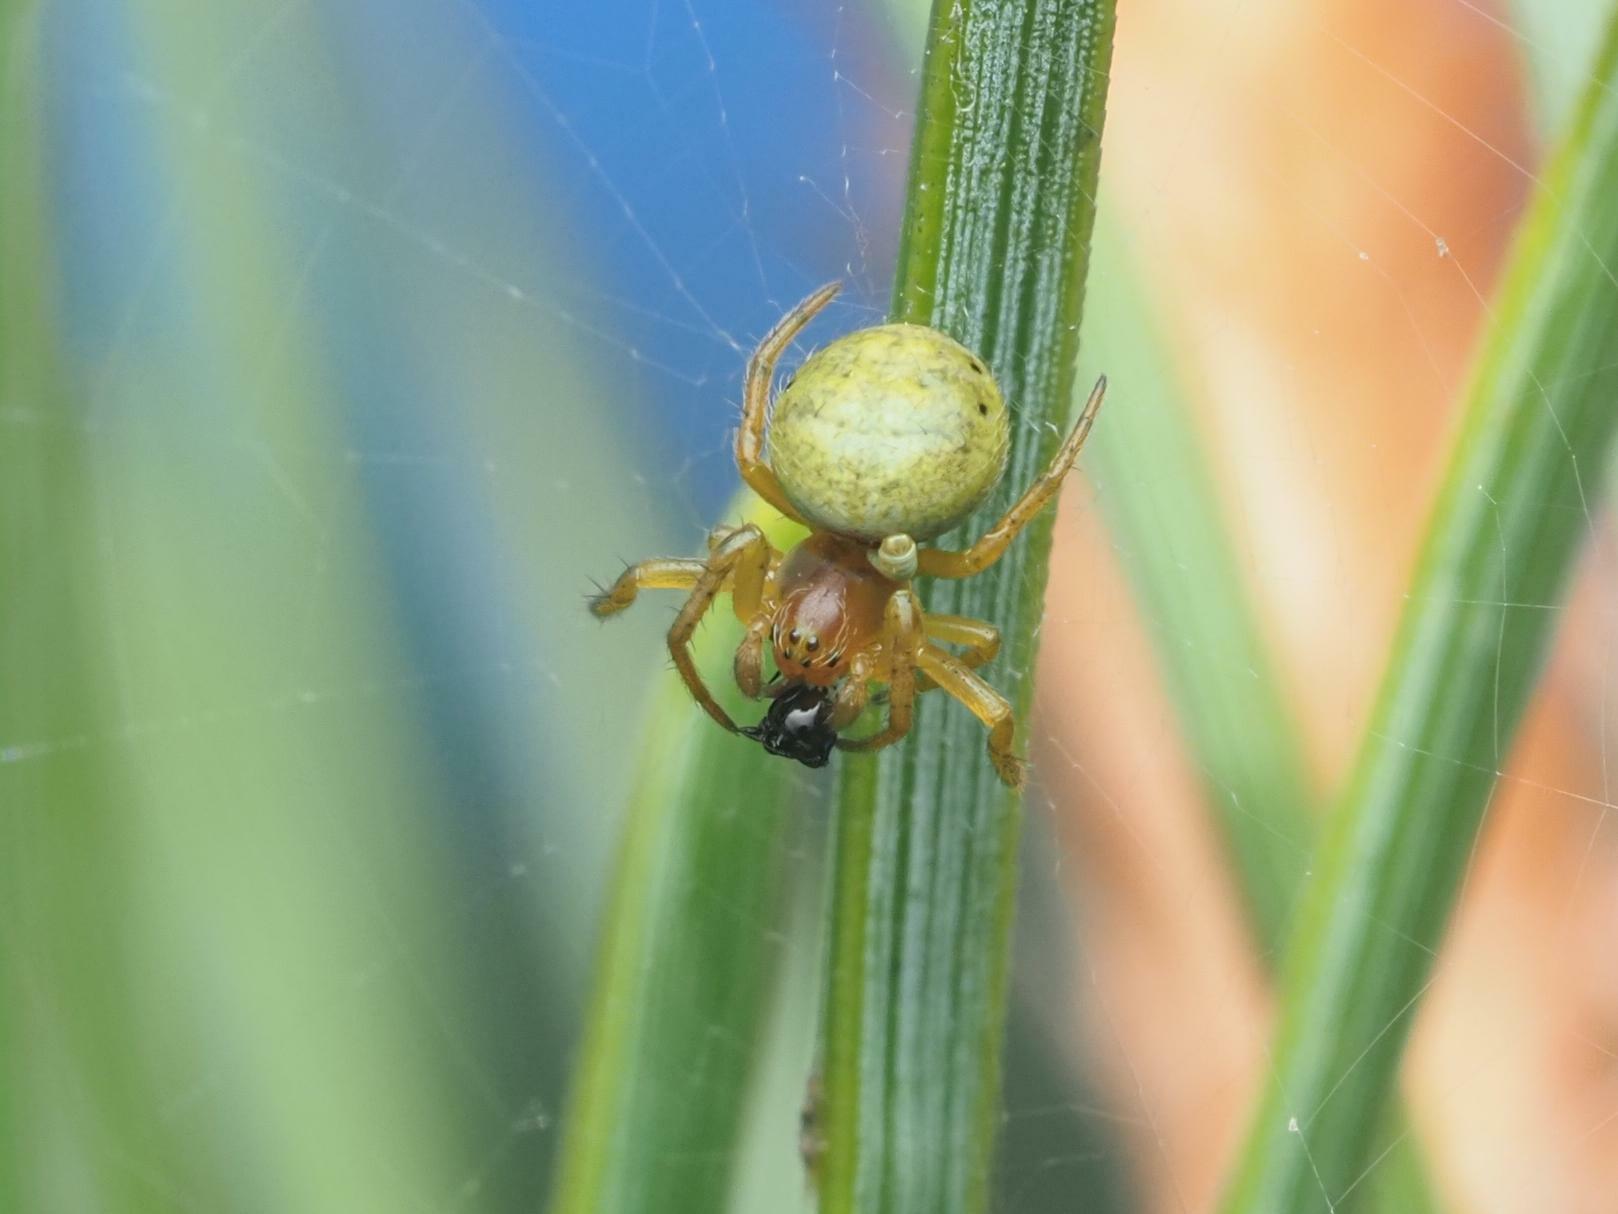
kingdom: Animalia
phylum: Arthropoda
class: Arachnida
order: Araneae
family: Araneidae
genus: Araniella
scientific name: Araniella
